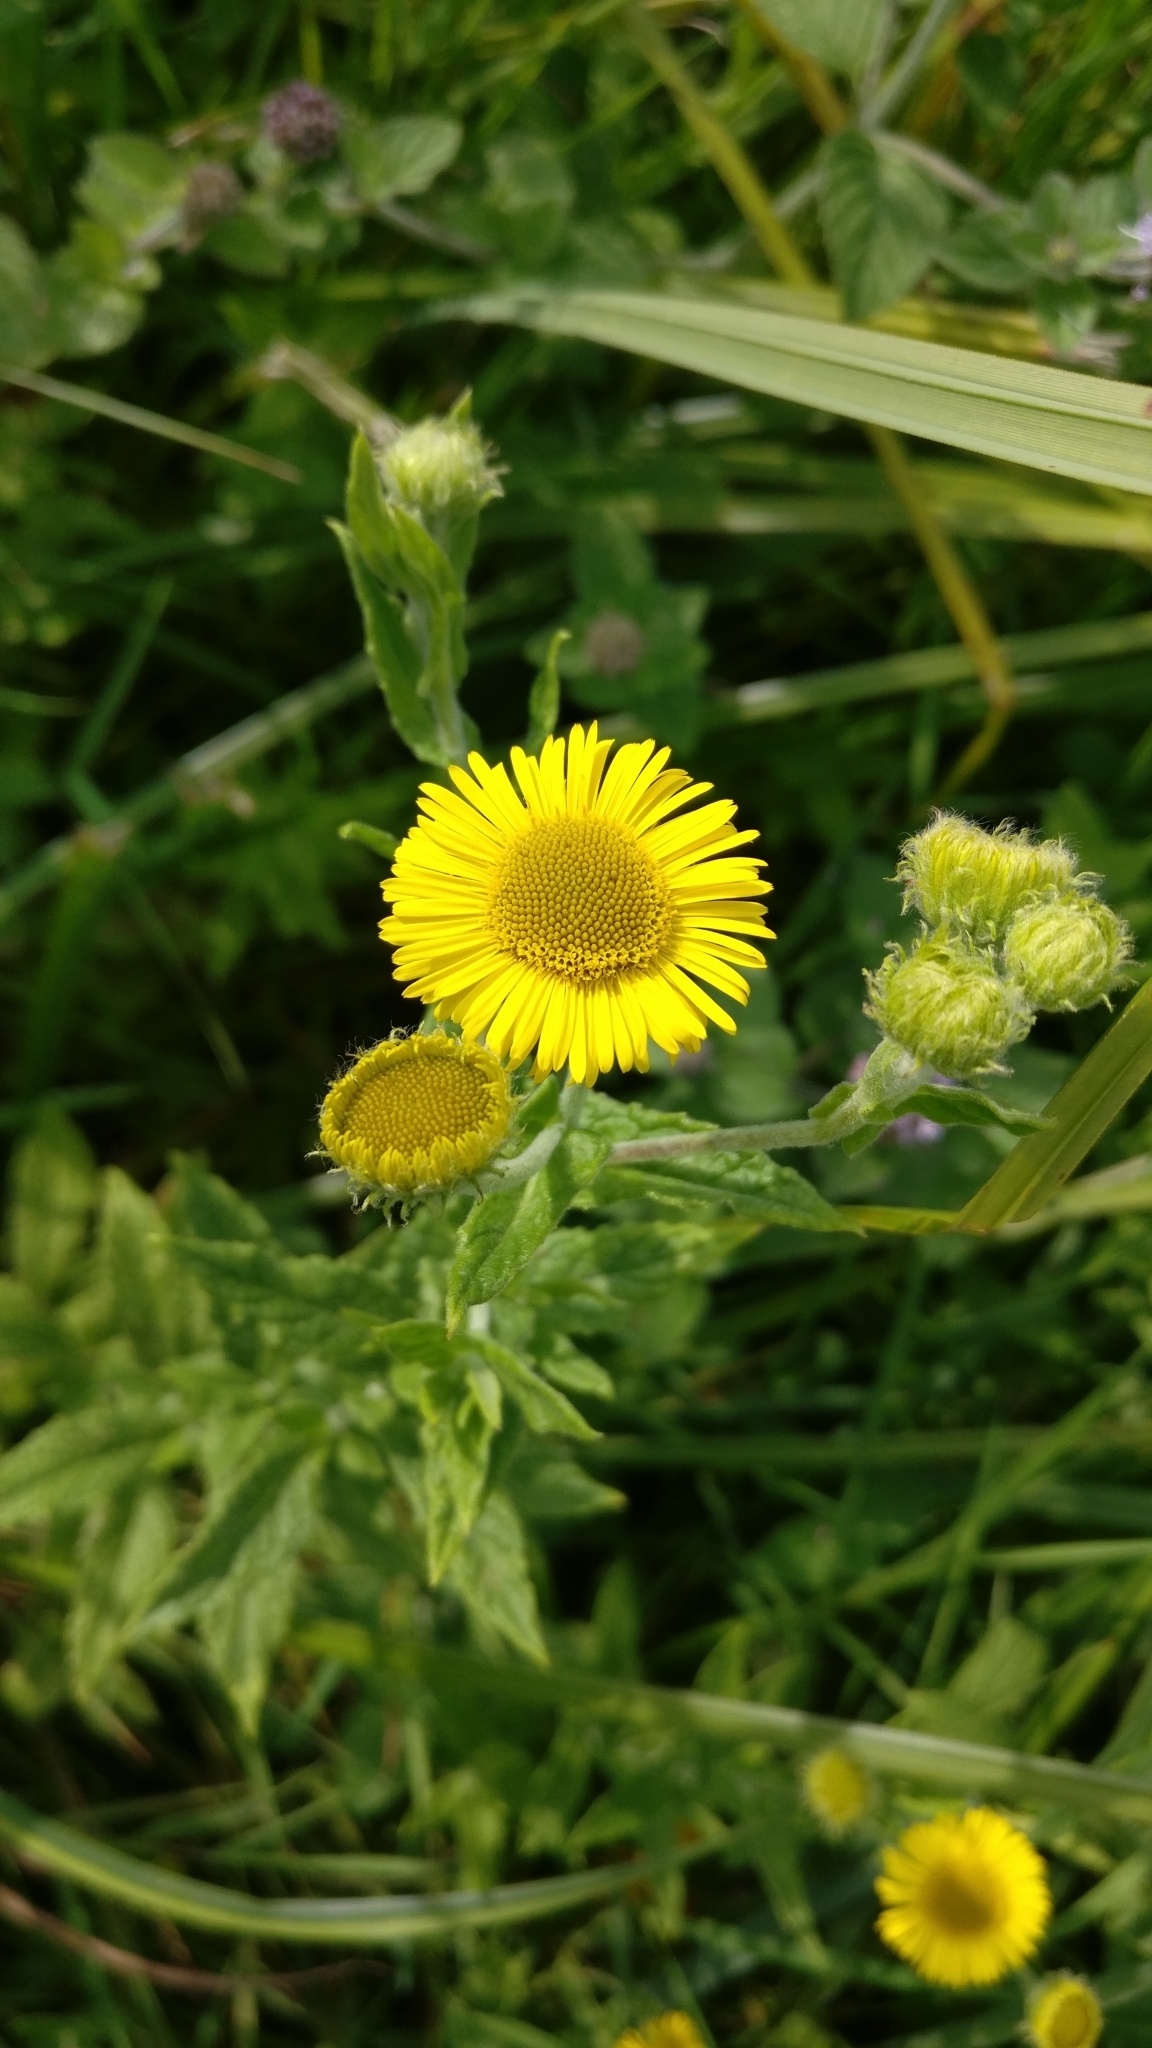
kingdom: Plantae
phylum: Tracheophyta
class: Magnoliopsida
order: Asterales
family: Asteraceae
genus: Pulicaria
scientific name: Pulicaria dysenterica
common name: Common fleabane
